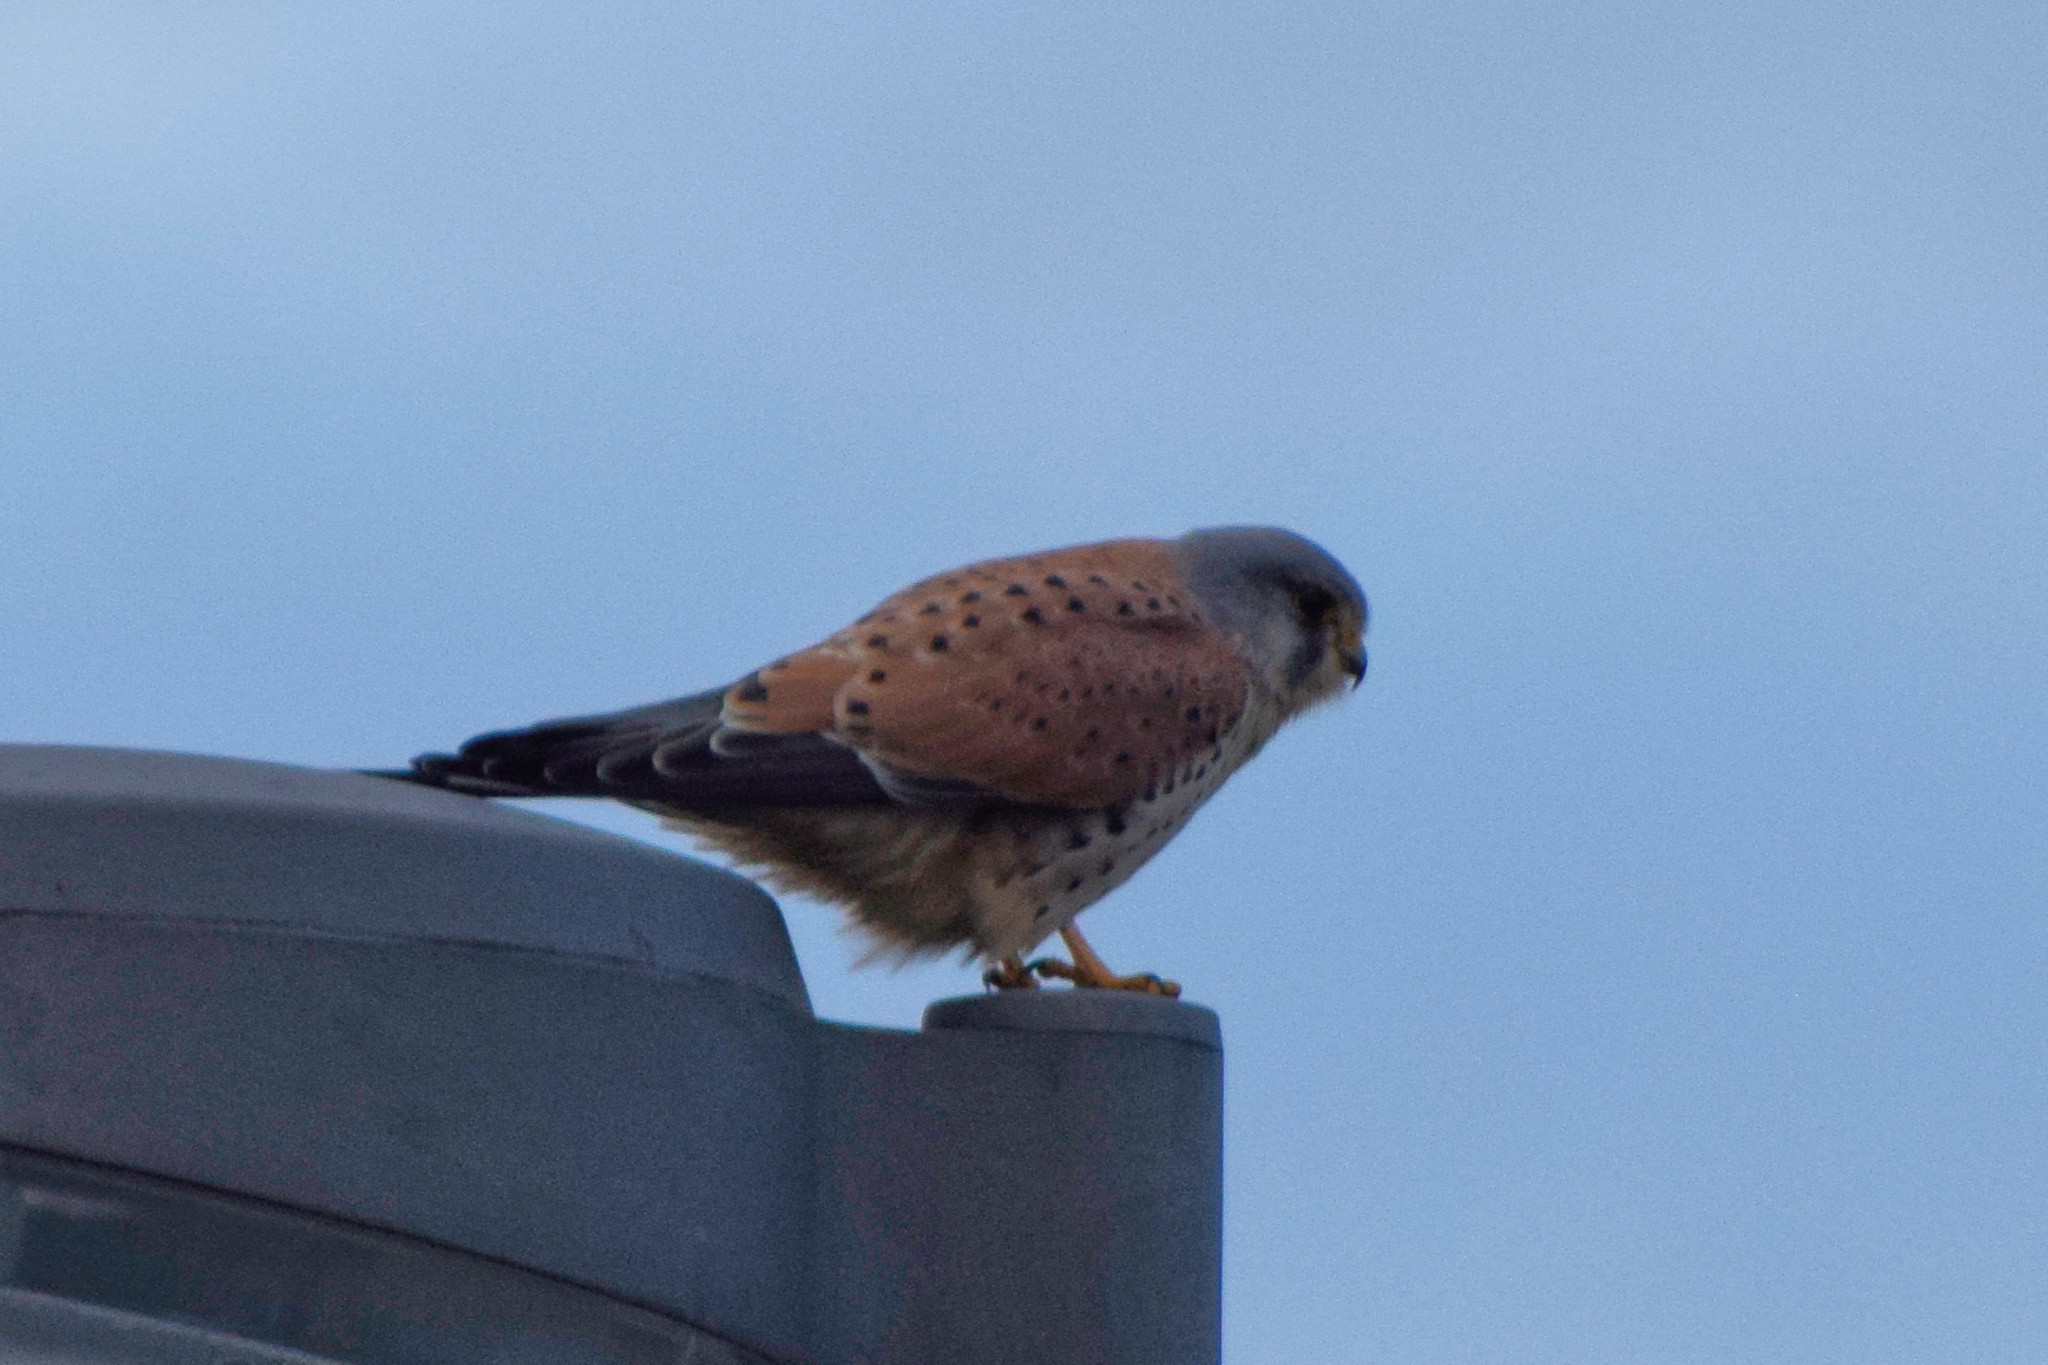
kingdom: Animalia
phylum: Chordata
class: Aves
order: Falconiformes
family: Falconidae
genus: Falco
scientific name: Falco tinnunculus
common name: Common kestrel
